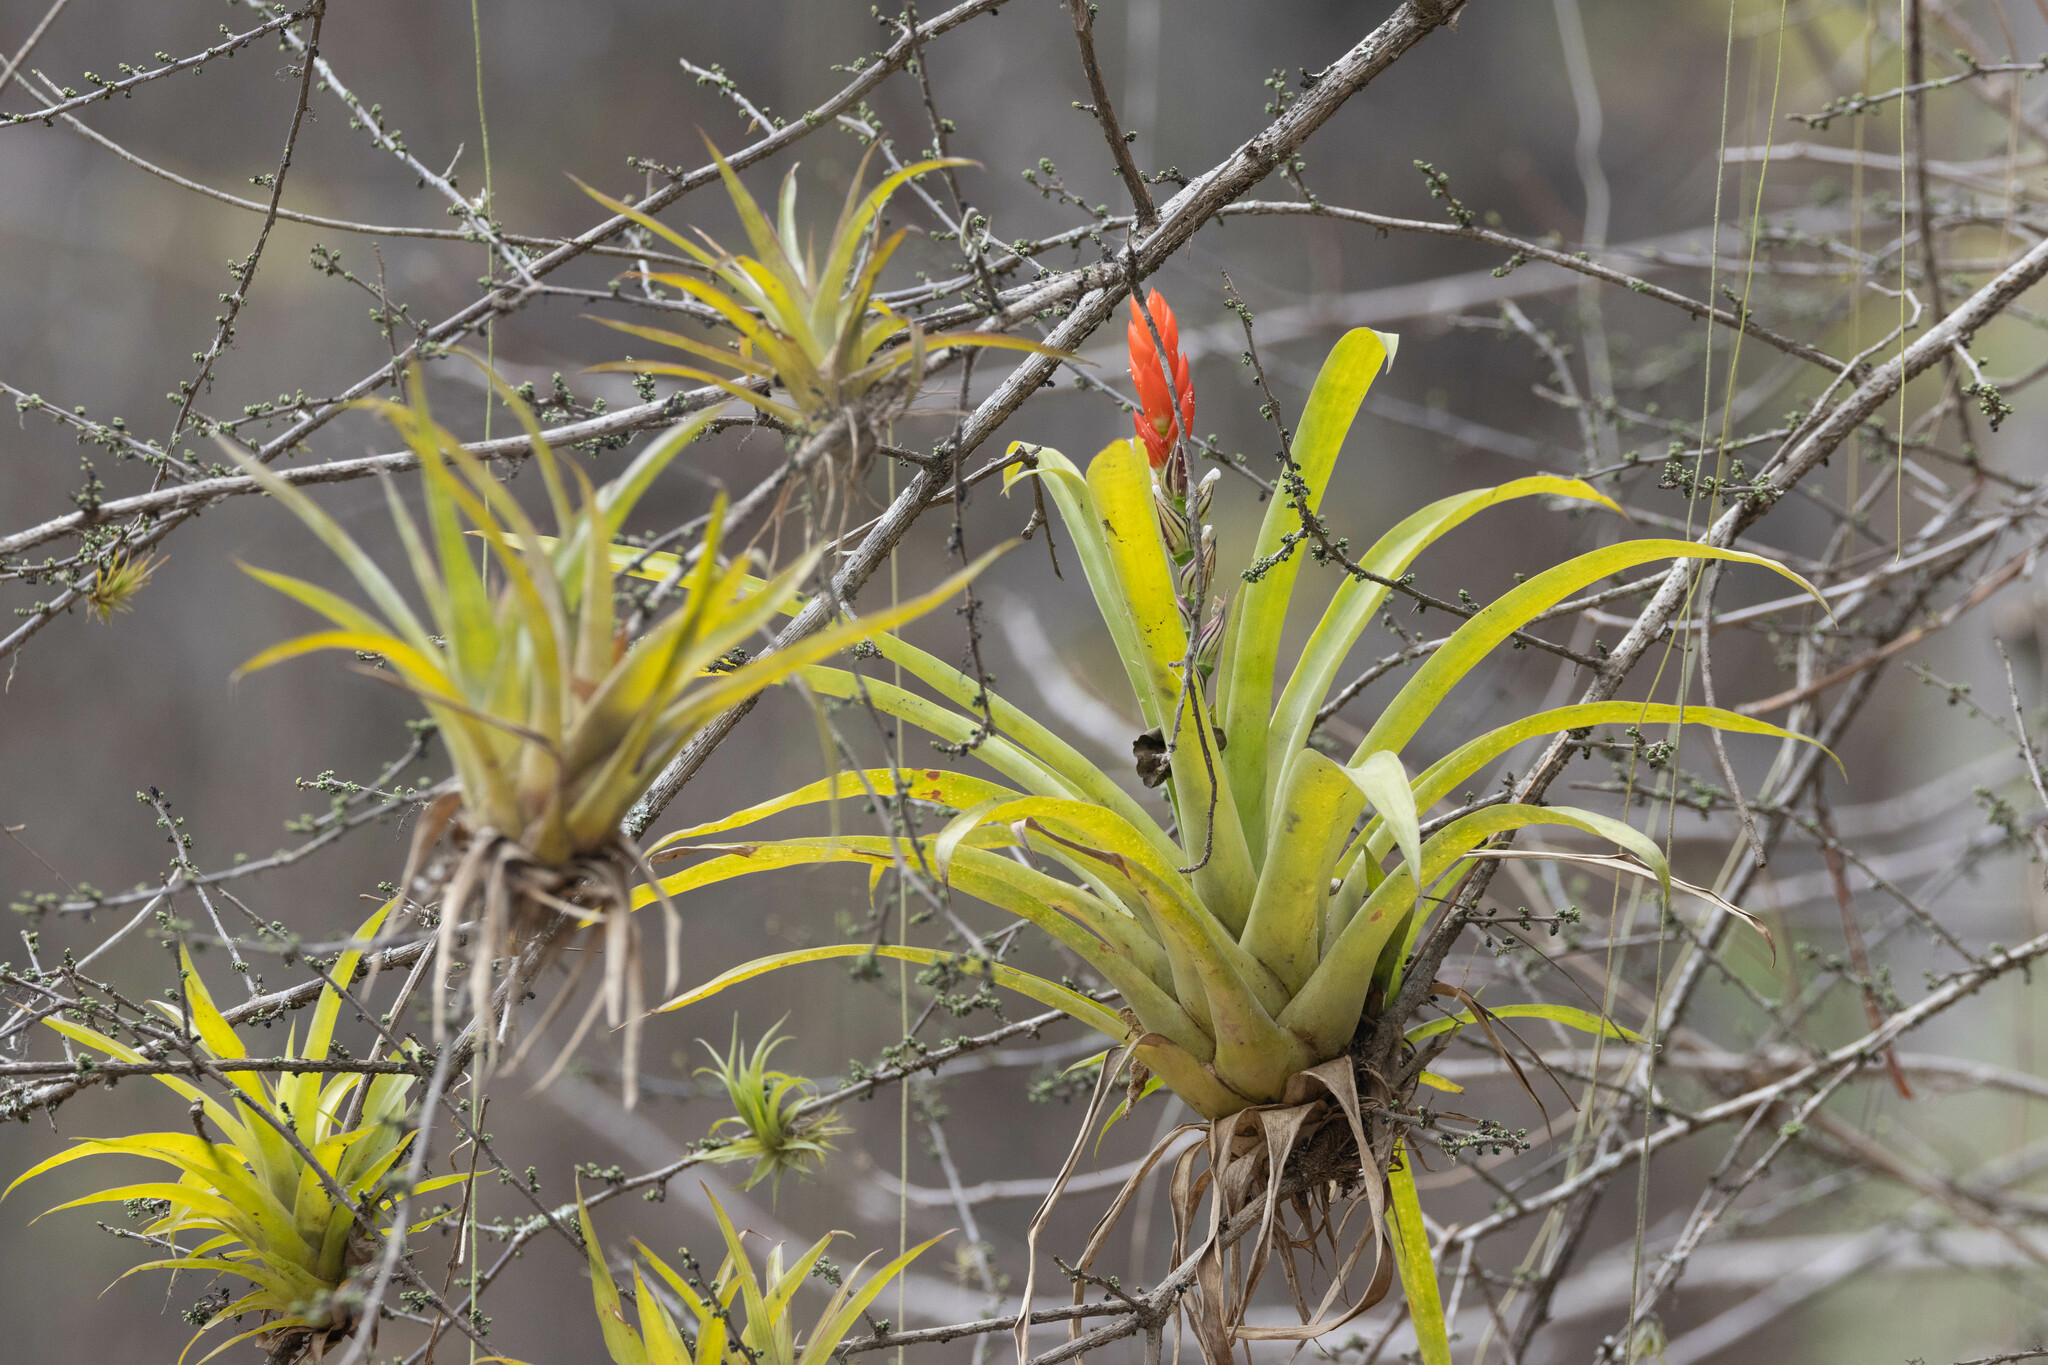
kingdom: Plantae
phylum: Tracheophyta
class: Liliopsida
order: Poales
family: Bromeliaceae
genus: Guzmania
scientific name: Guzmania monostachia
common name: West indian tufted airplant
